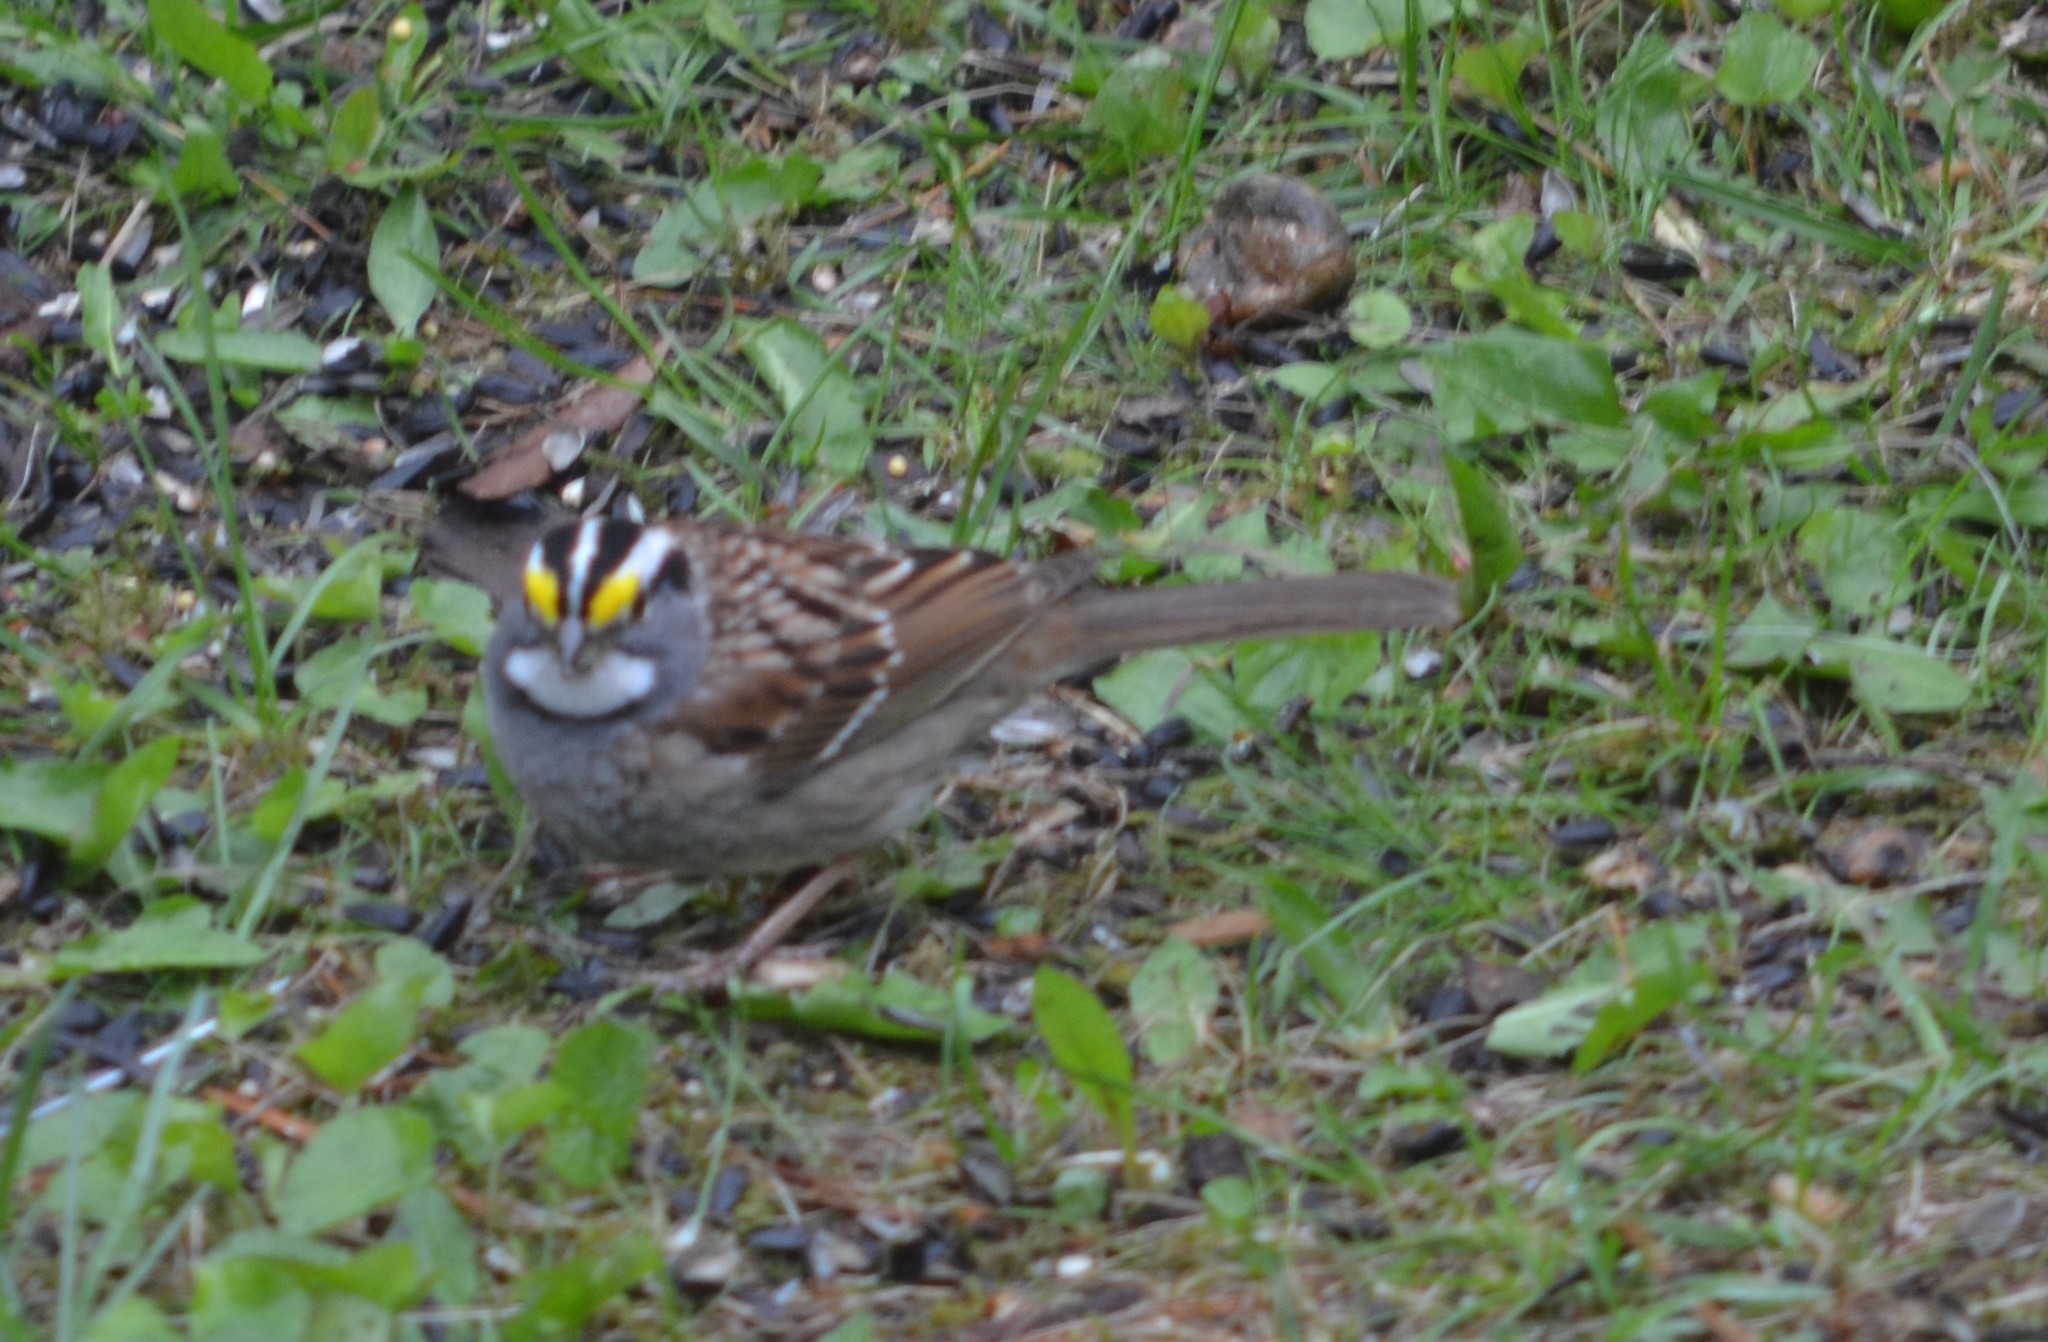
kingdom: Animalia
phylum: Chordata
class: Aves
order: Passeriformes
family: Passerellidae
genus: Zonotrichia
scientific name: Zonotrichia albicollis
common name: White-throated sparrow
